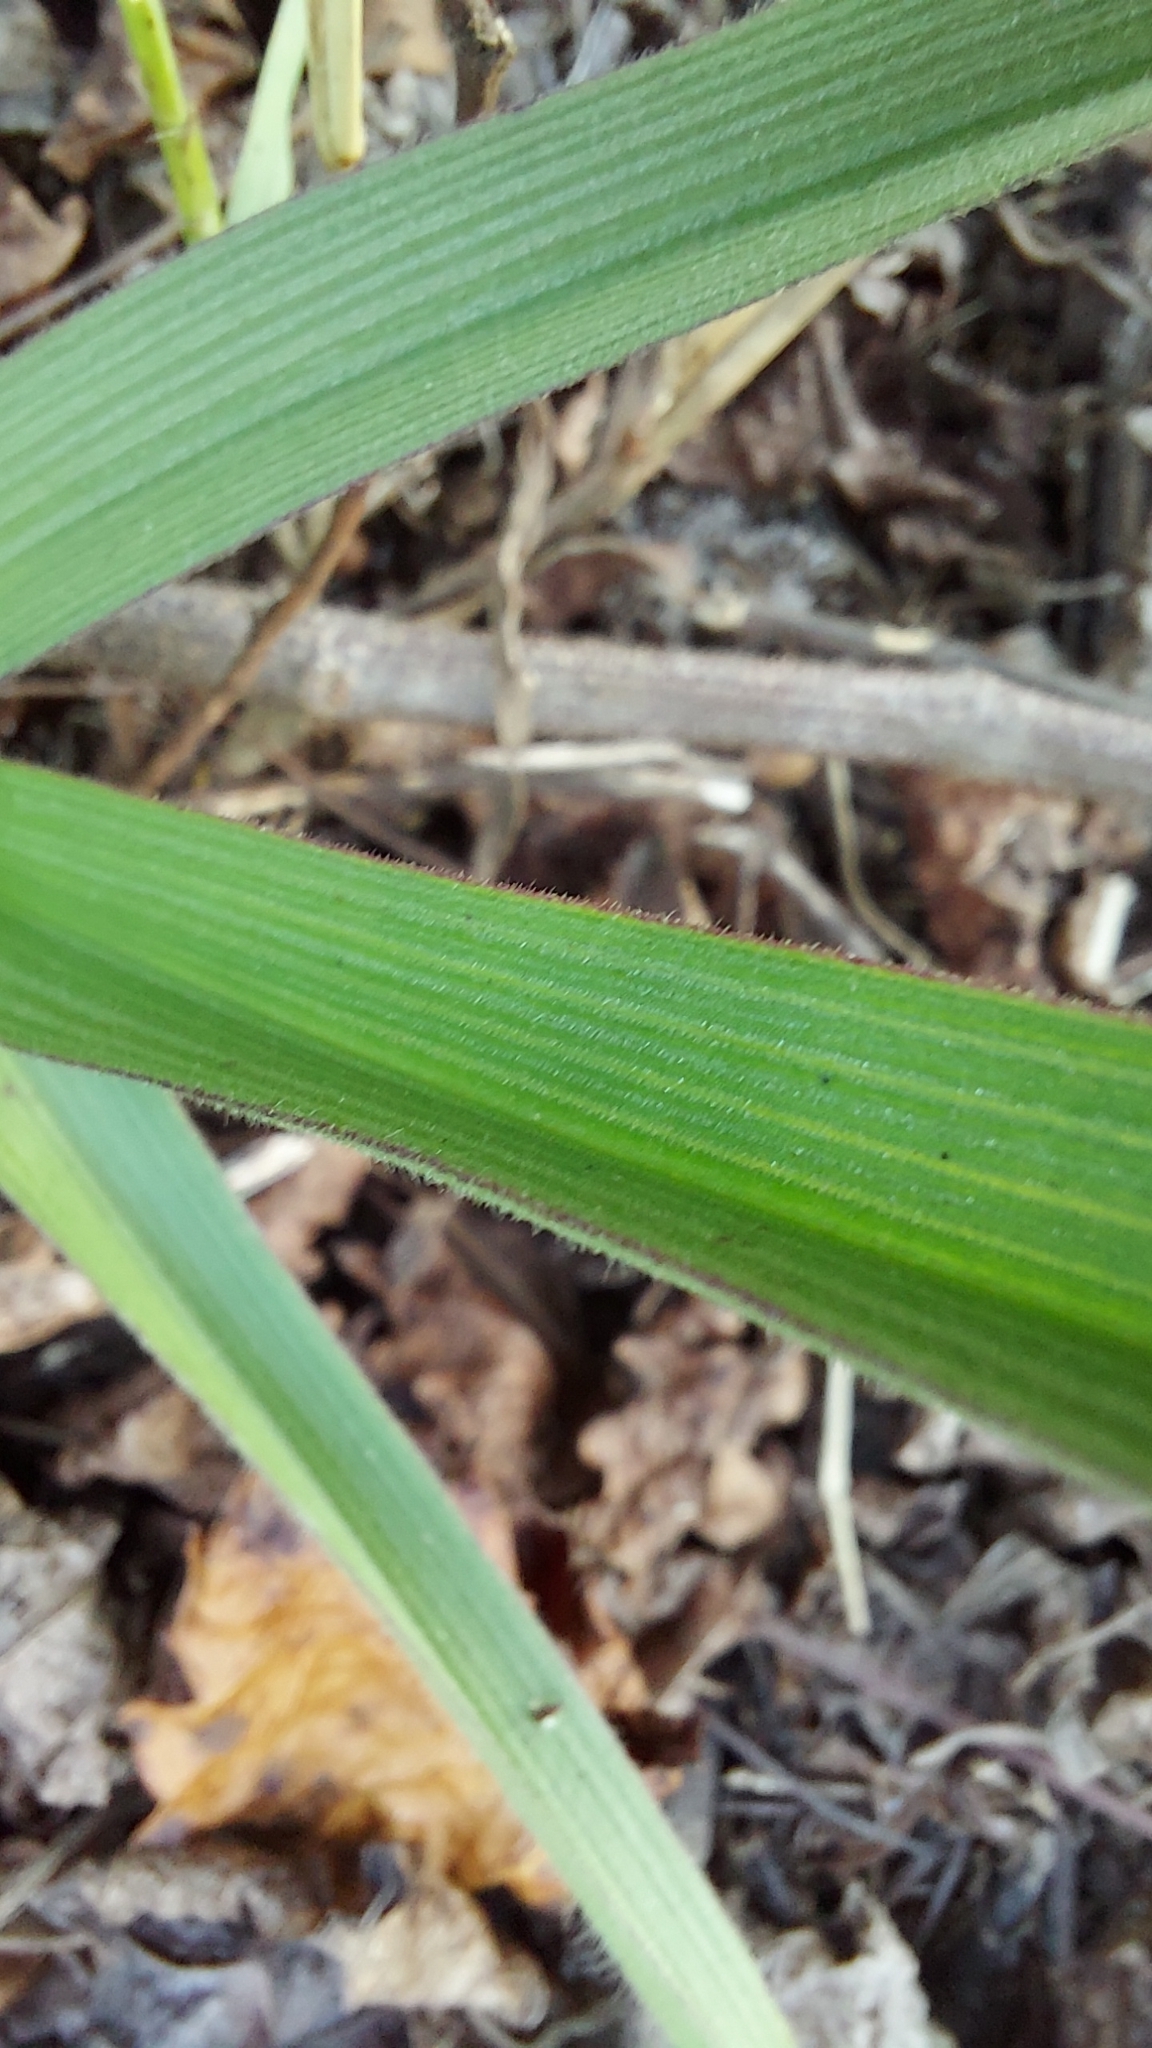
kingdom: Plantae
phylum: Tracheophyta
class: Liliopsida
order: Commelinales
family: Commelinaceae
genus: Tradescantia
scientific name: Tradescantia roseolens
